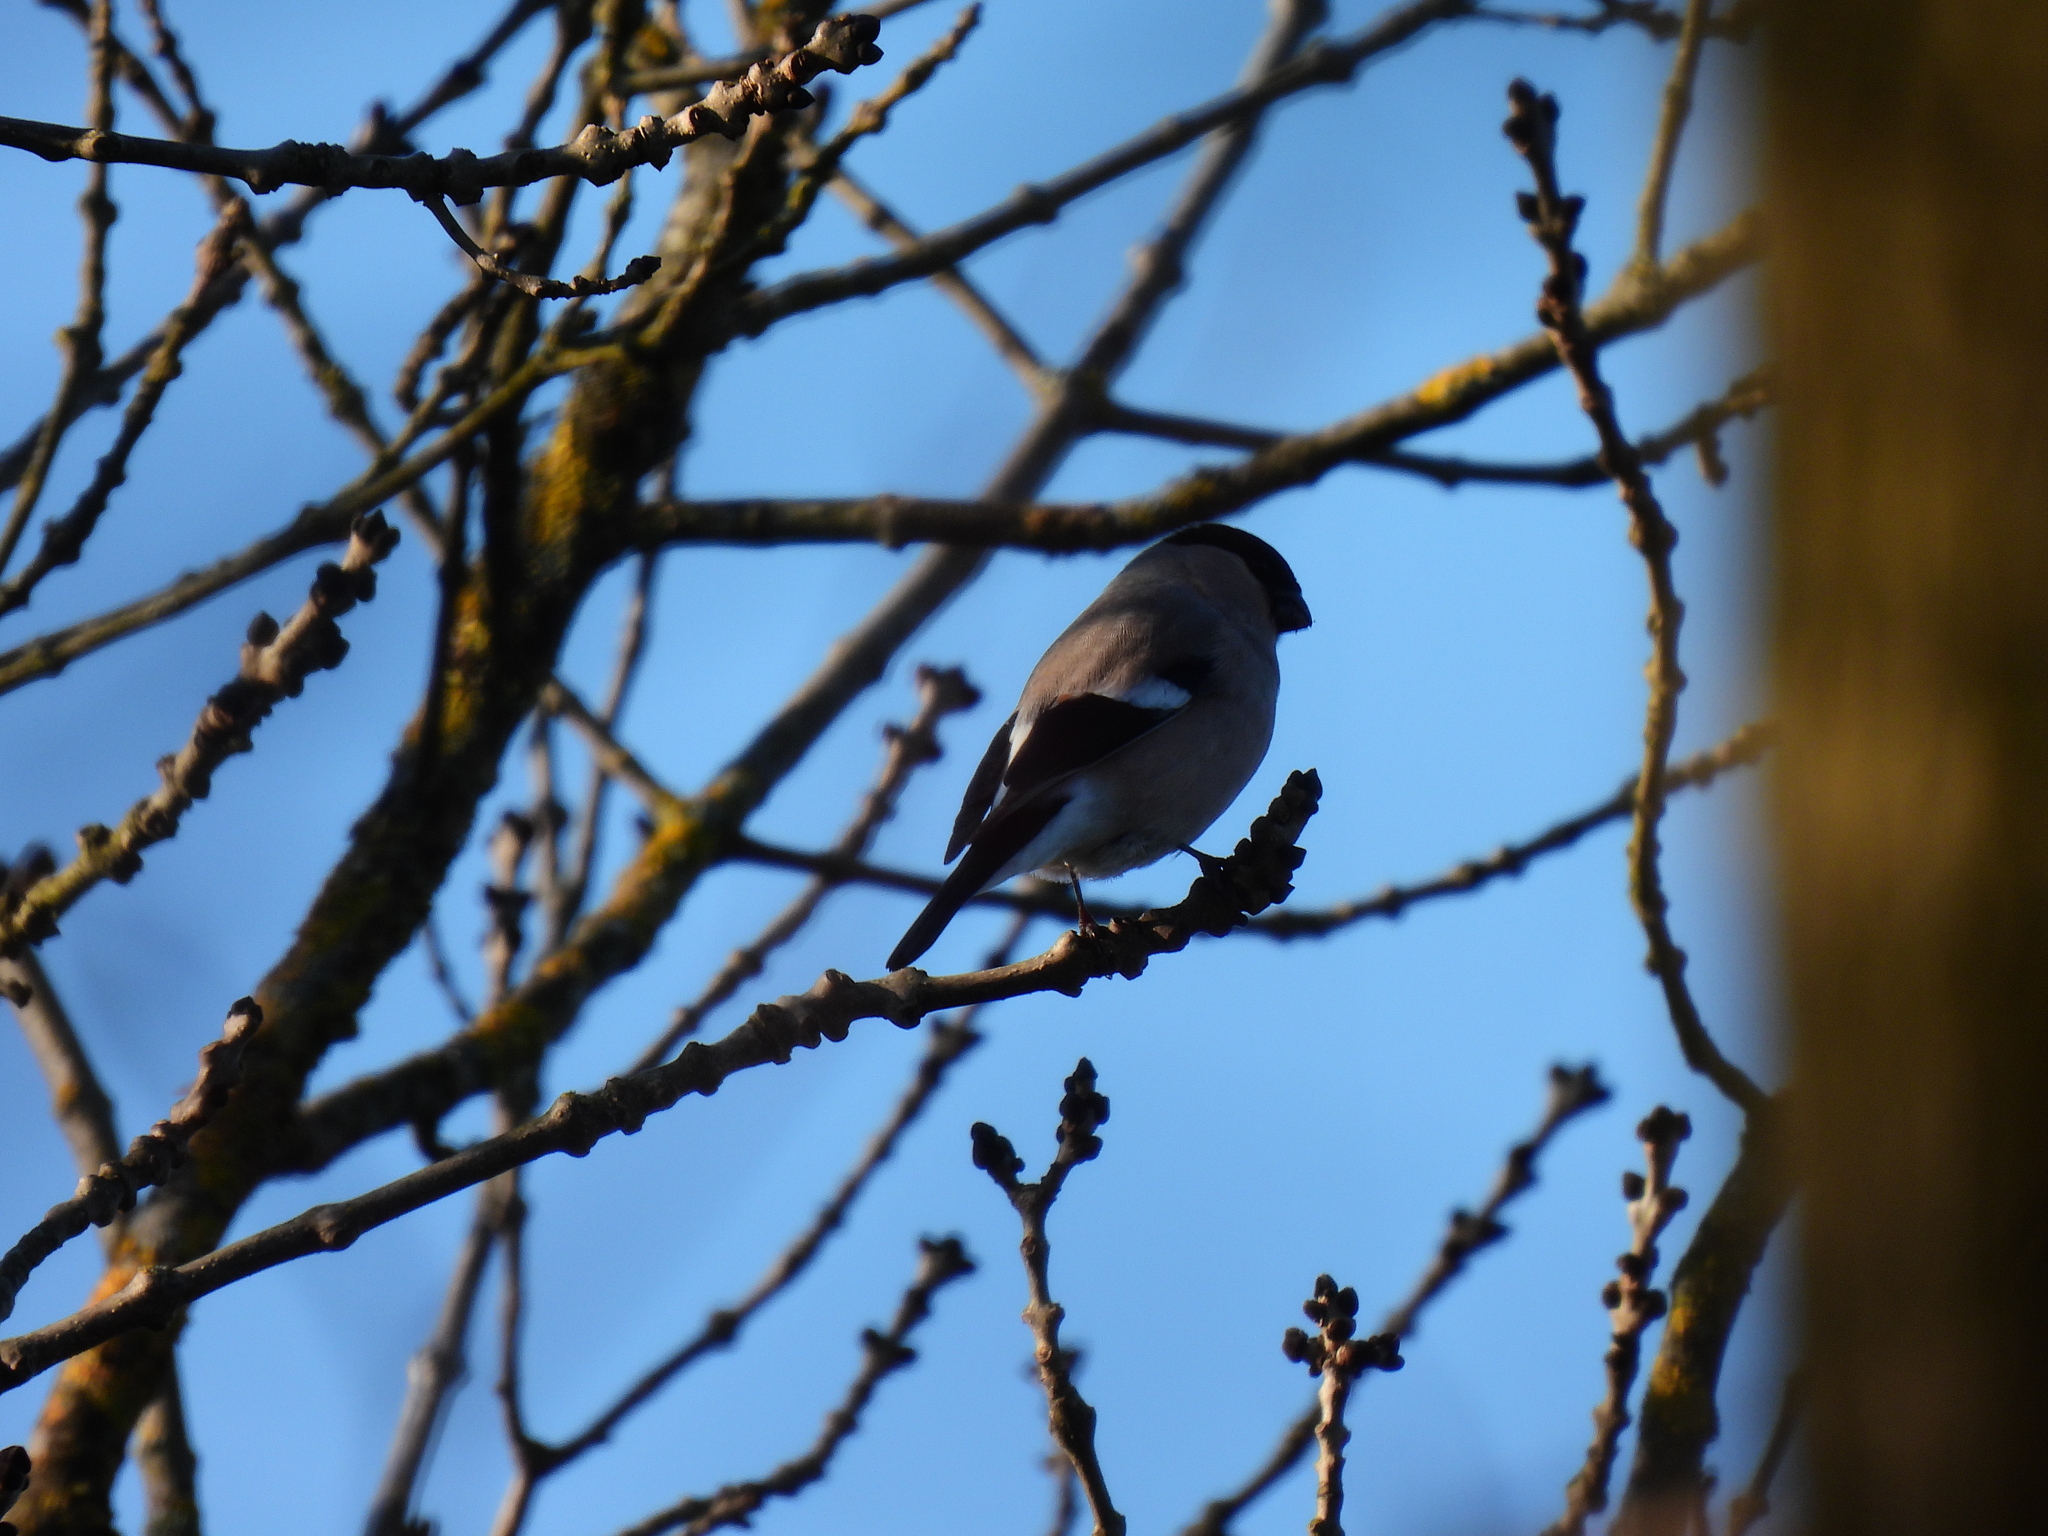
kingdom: Animalia
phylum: Chordata
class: Aves
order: Passeriformes
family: Fringillidae
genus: Pyrrhula
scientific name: Pyrrhula pyrrhula
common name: Eurasian bullfinch
